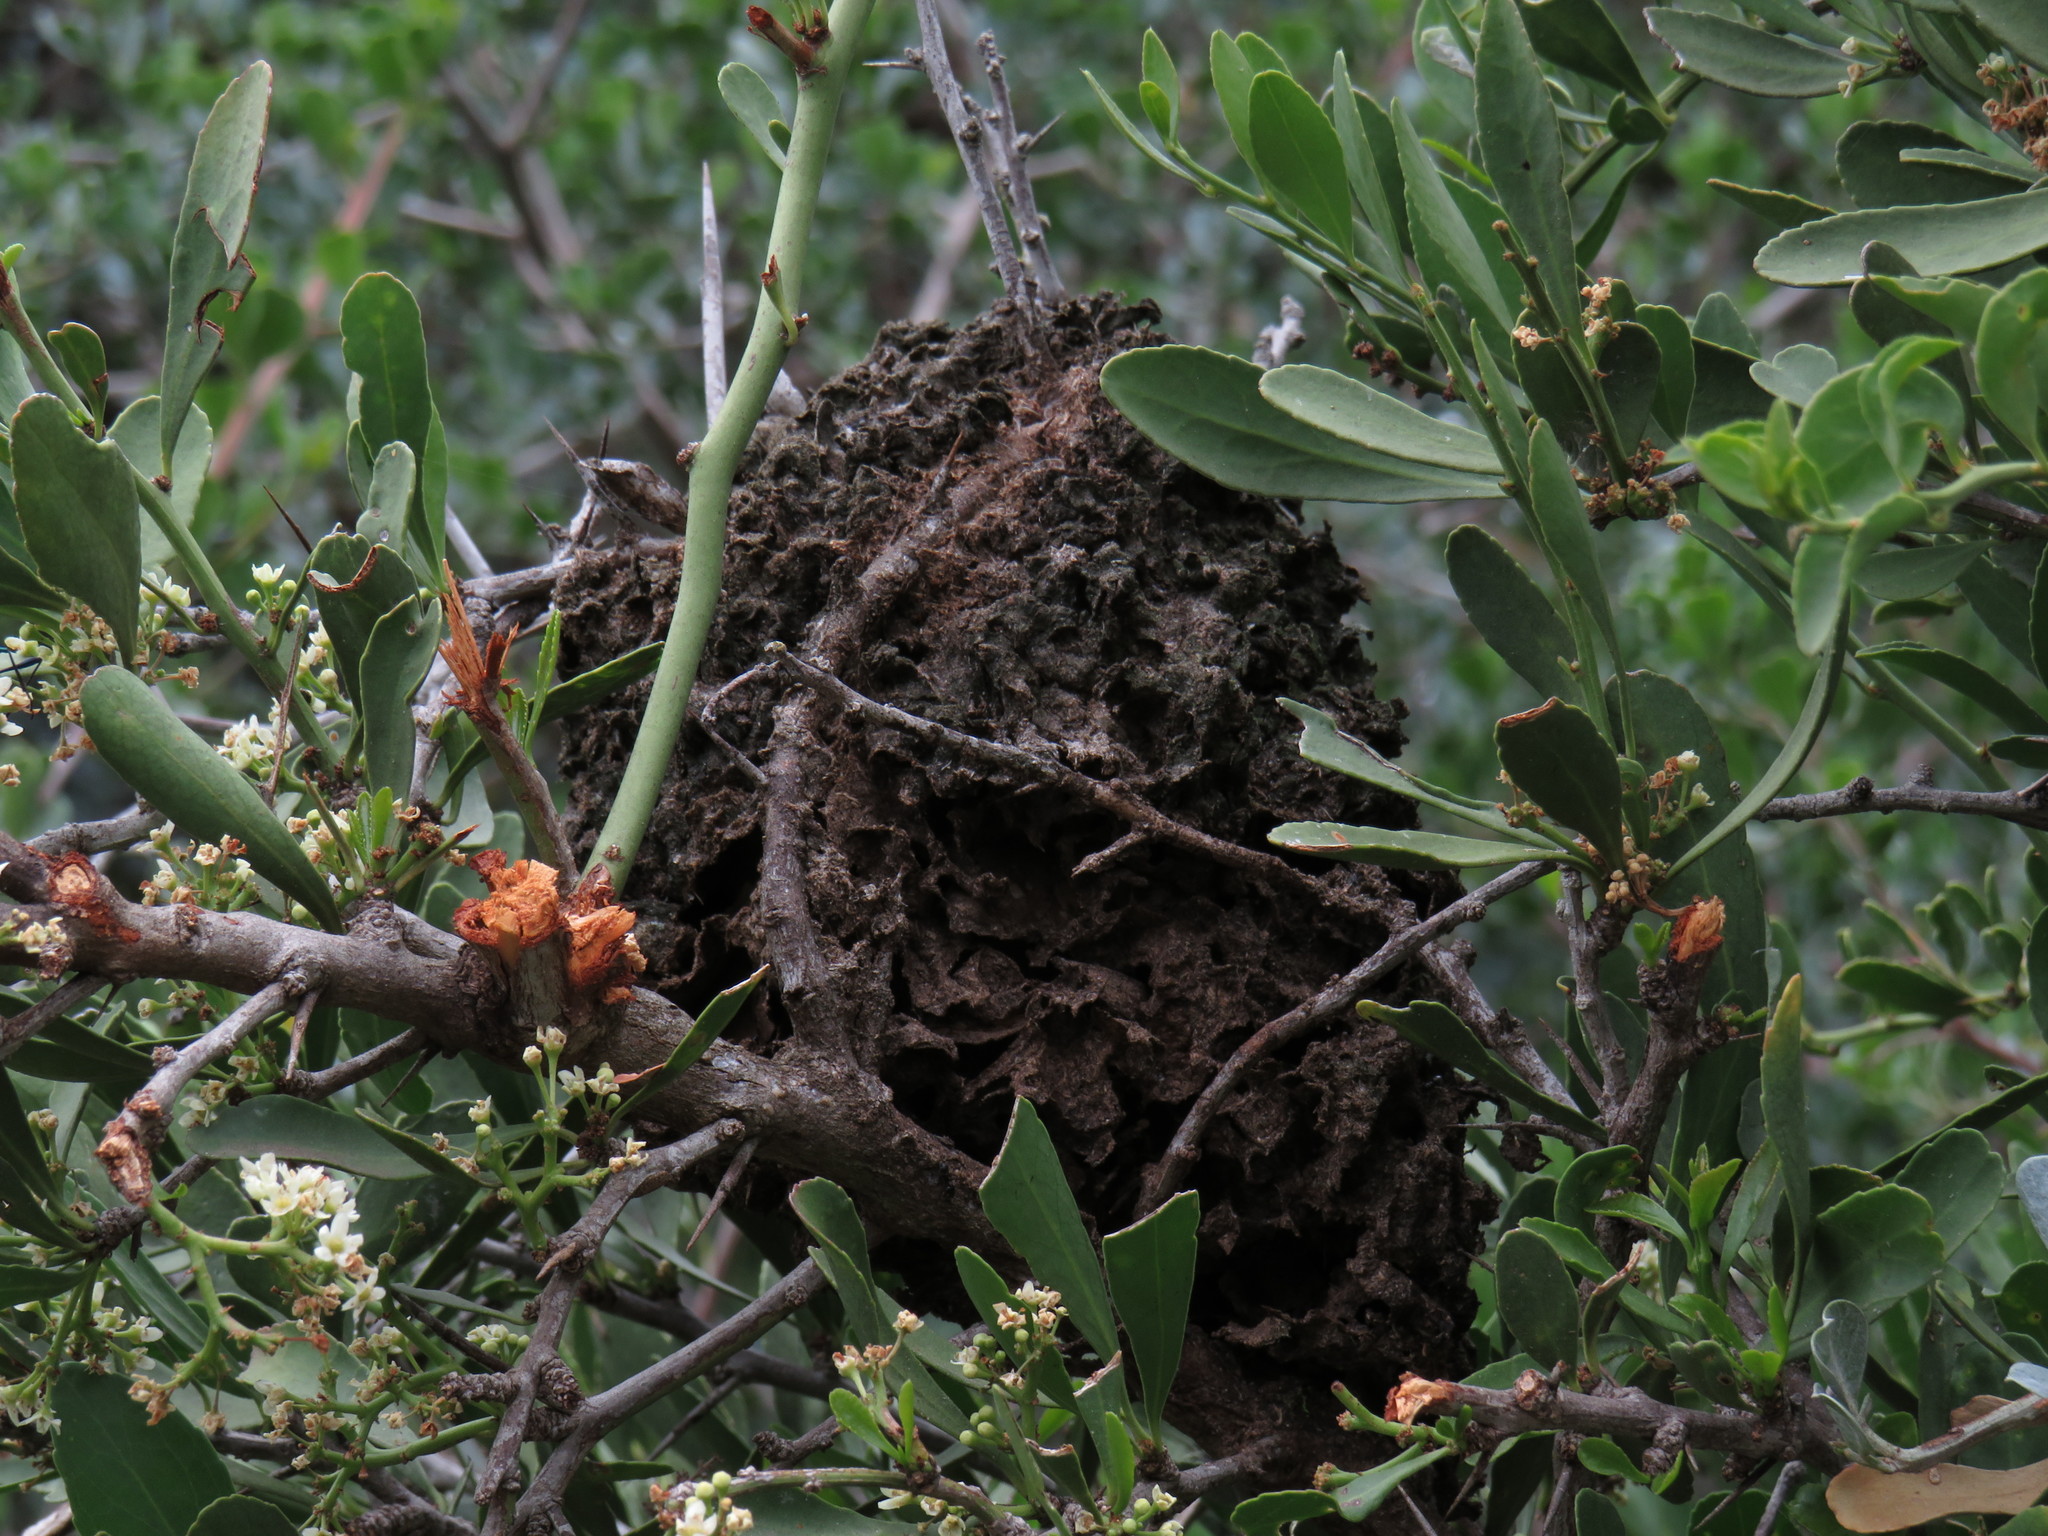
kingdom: Animalia
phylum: Arthropoda
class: Insecta
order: Hymenoptera
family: Formicidae
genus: Crematogaster
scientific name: Crematogaster peringueyi
